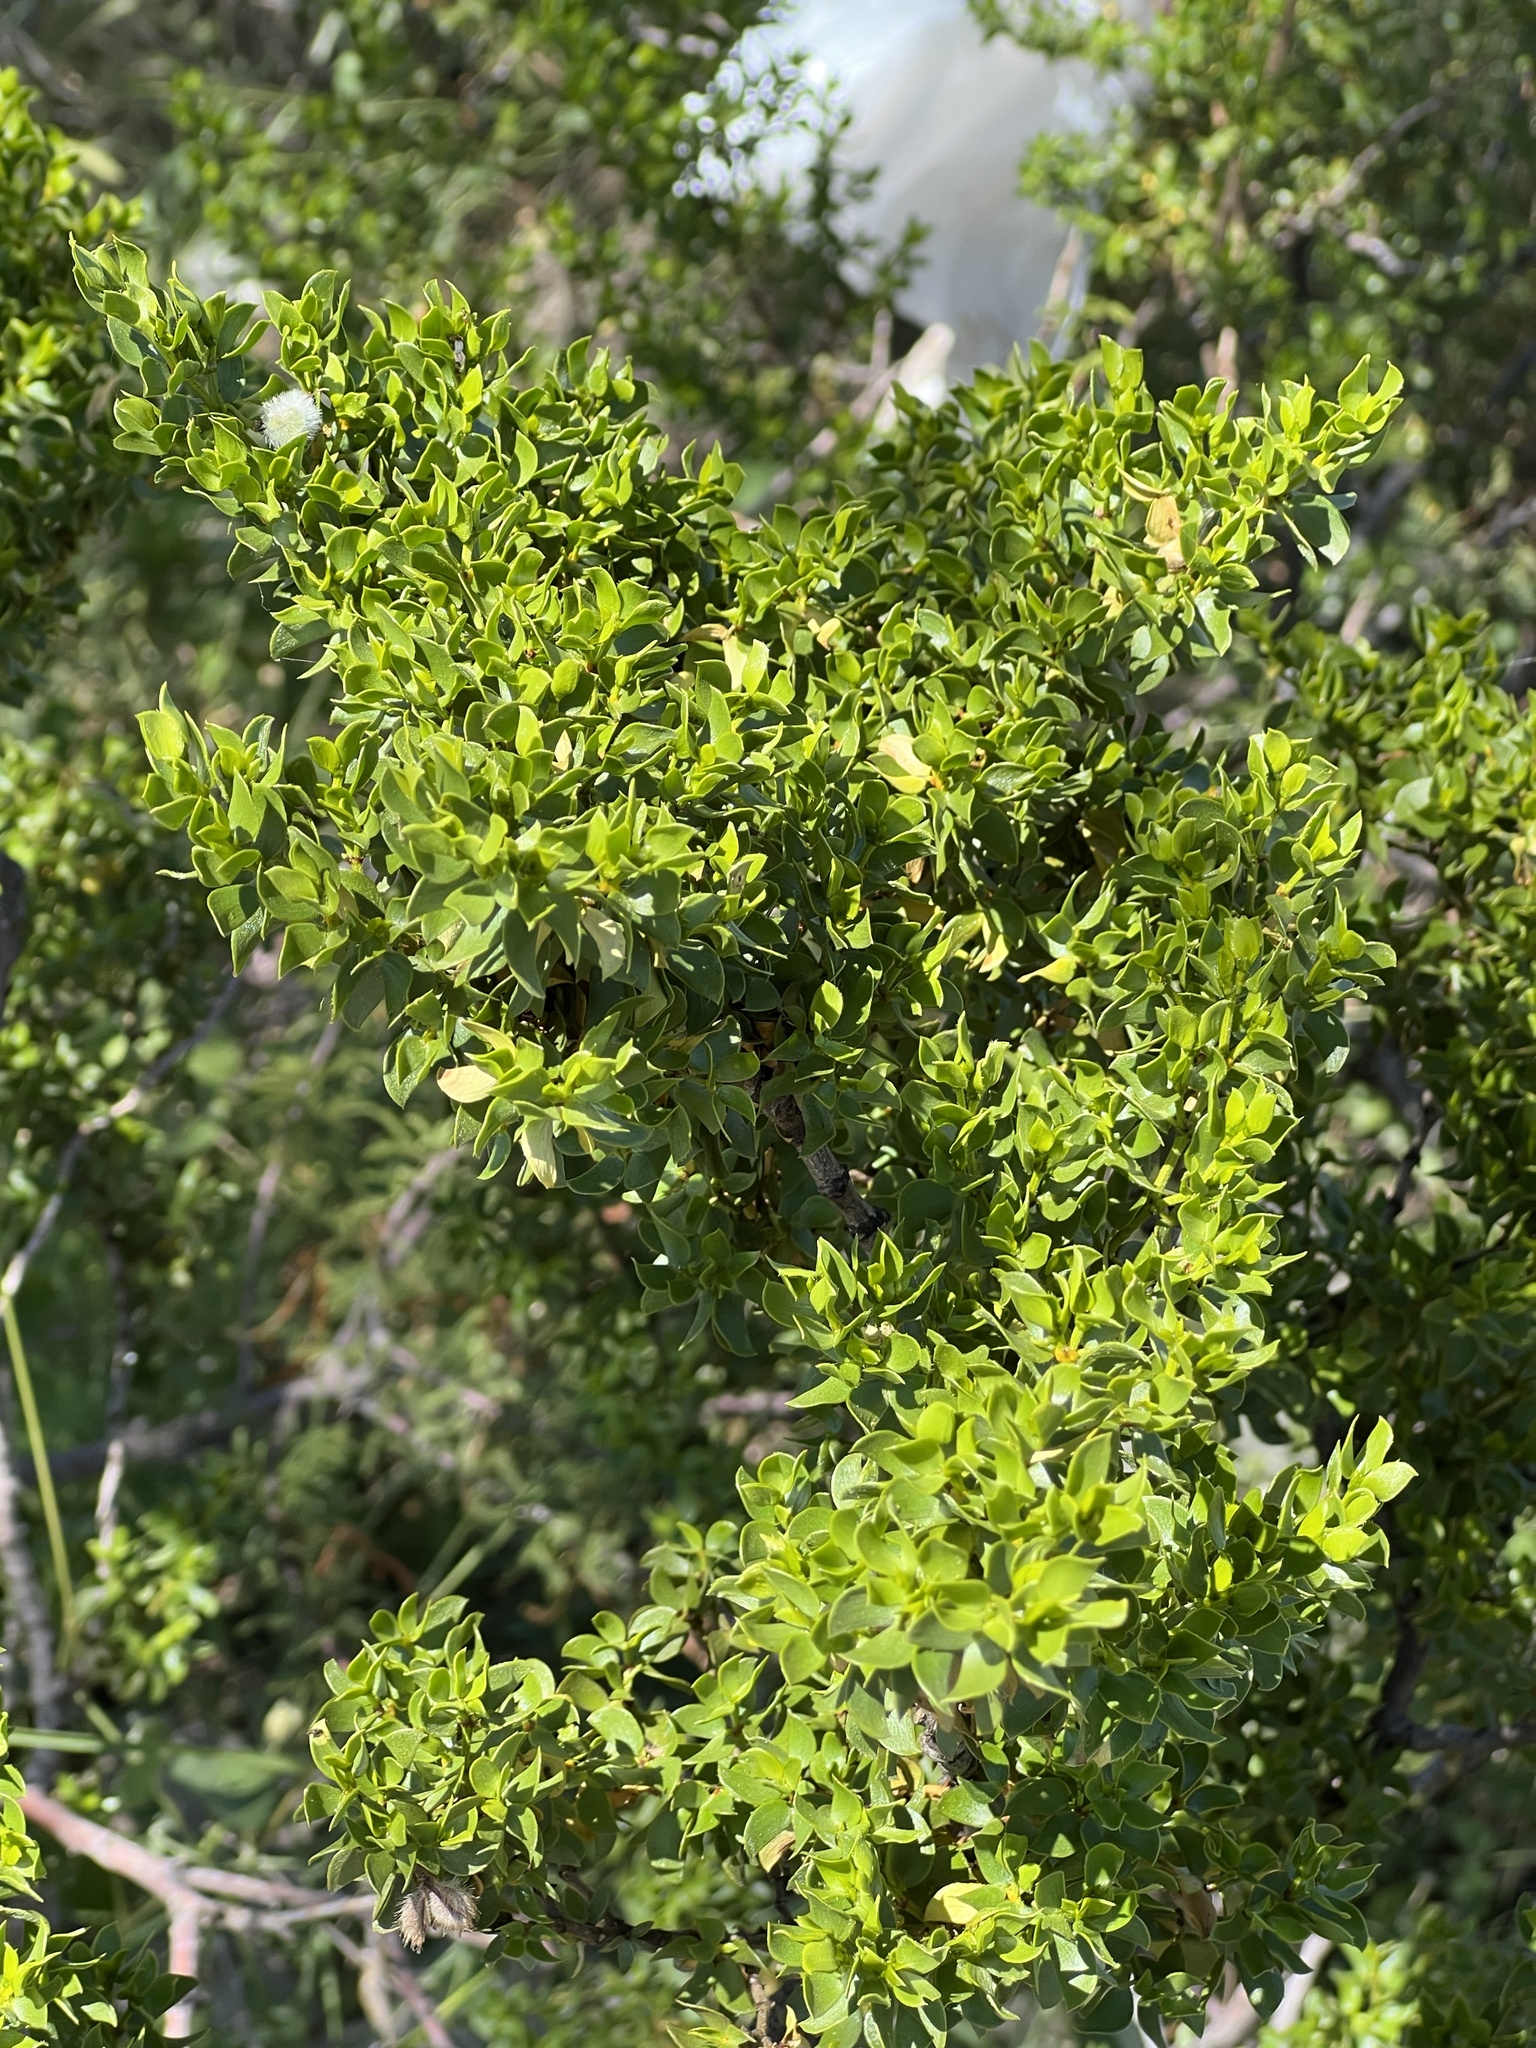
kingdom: Plantae
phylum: Tracheophyta
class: Magnoliopsida
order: Zygophyllales
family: Zygophyllaceae
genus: Larrea
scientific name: Larrea tridentata
